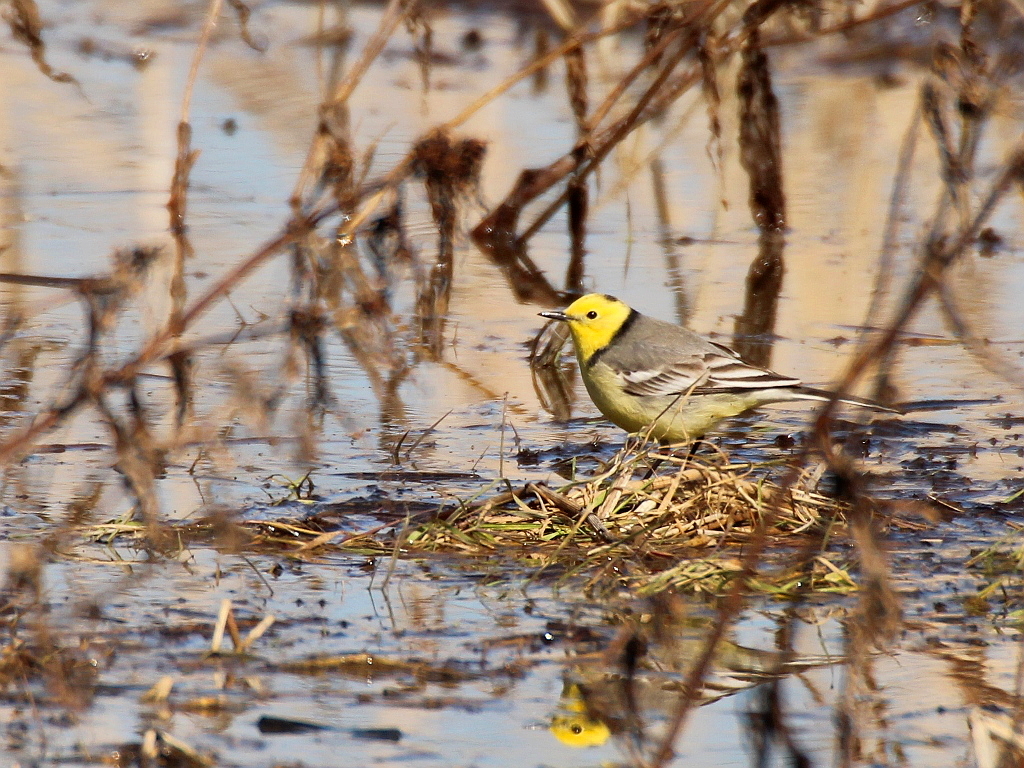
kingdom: Animalia
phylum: Chordata
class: Aves
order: Passeriformes
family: Motacillidae
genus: Motacilla
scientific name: Motacilla citreola
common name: Citrine wagtail
